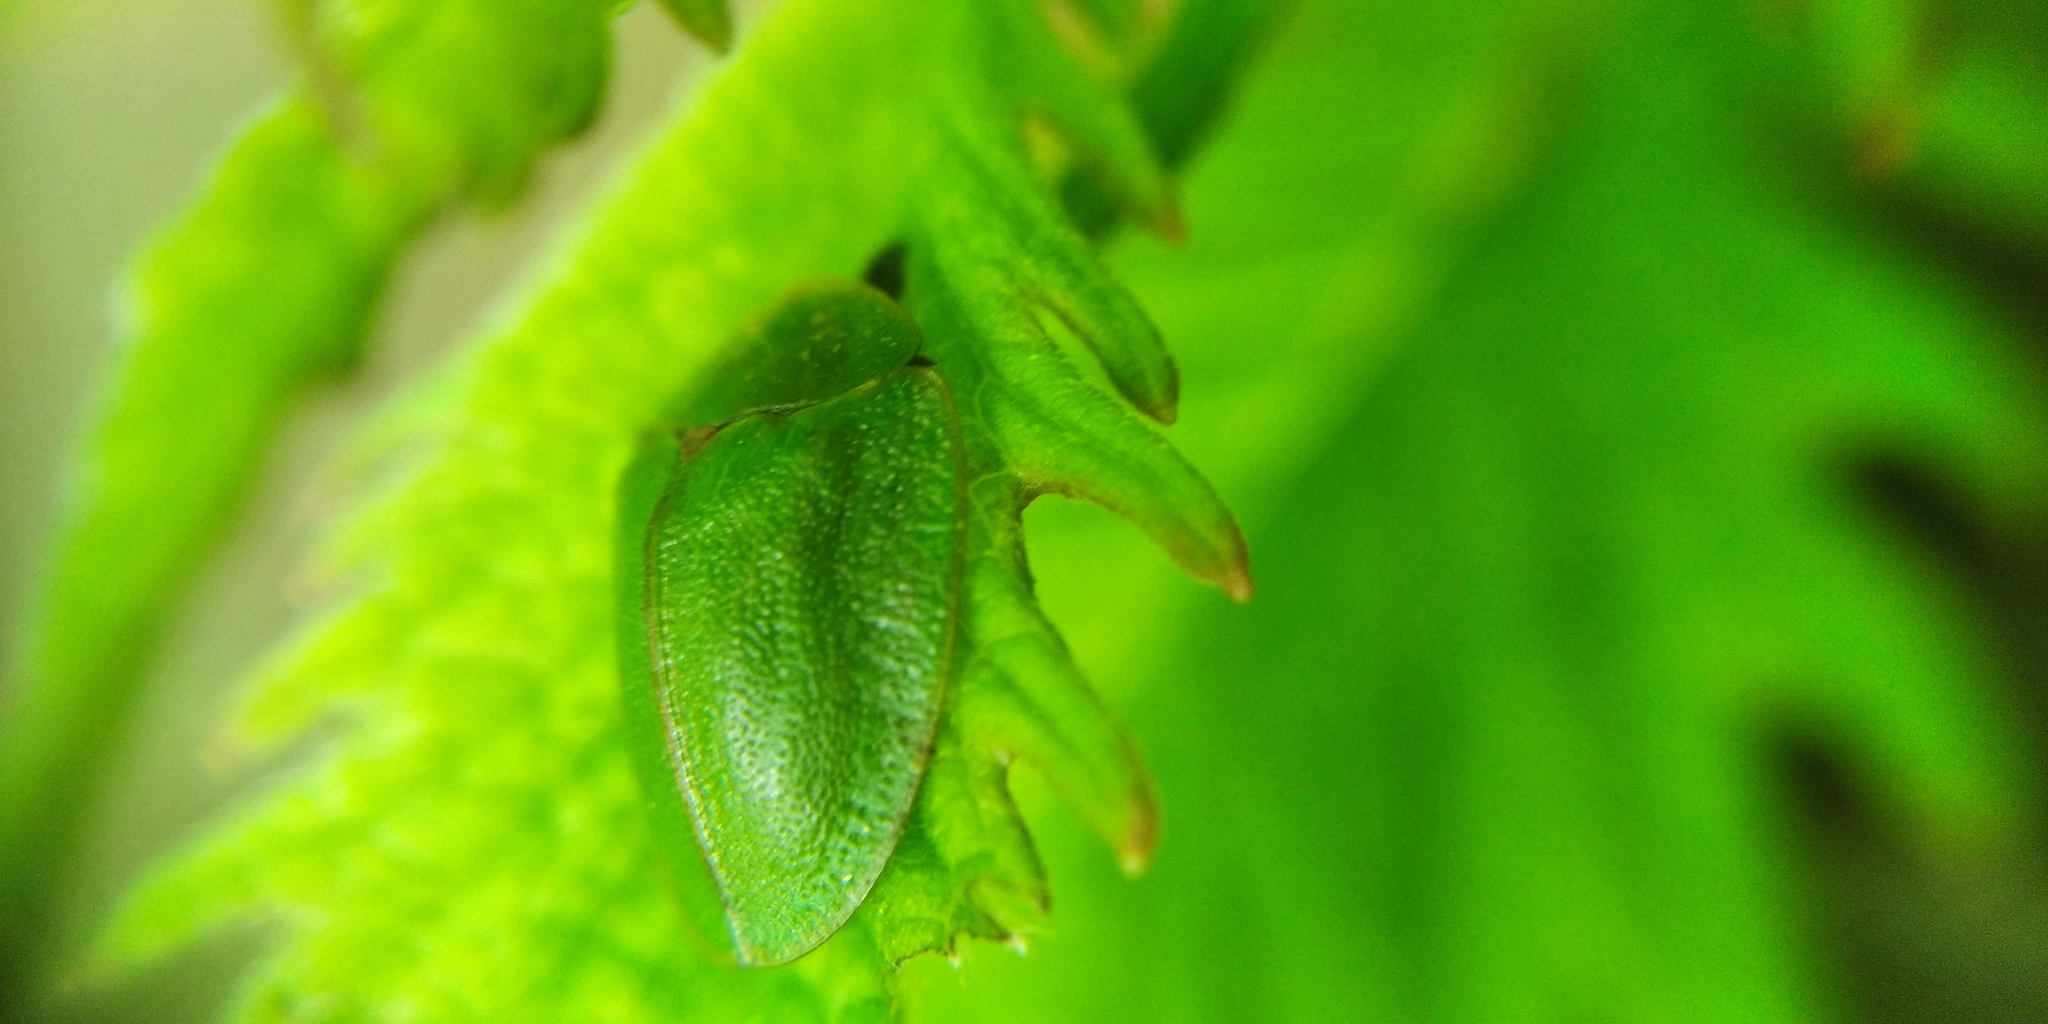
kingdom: Animalia
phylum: Arthropoda
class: Insecta
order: Coleoptera
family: Chrysomelidae
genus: Cassida
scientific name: Cassida viridis
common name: Green tortoise beetle
